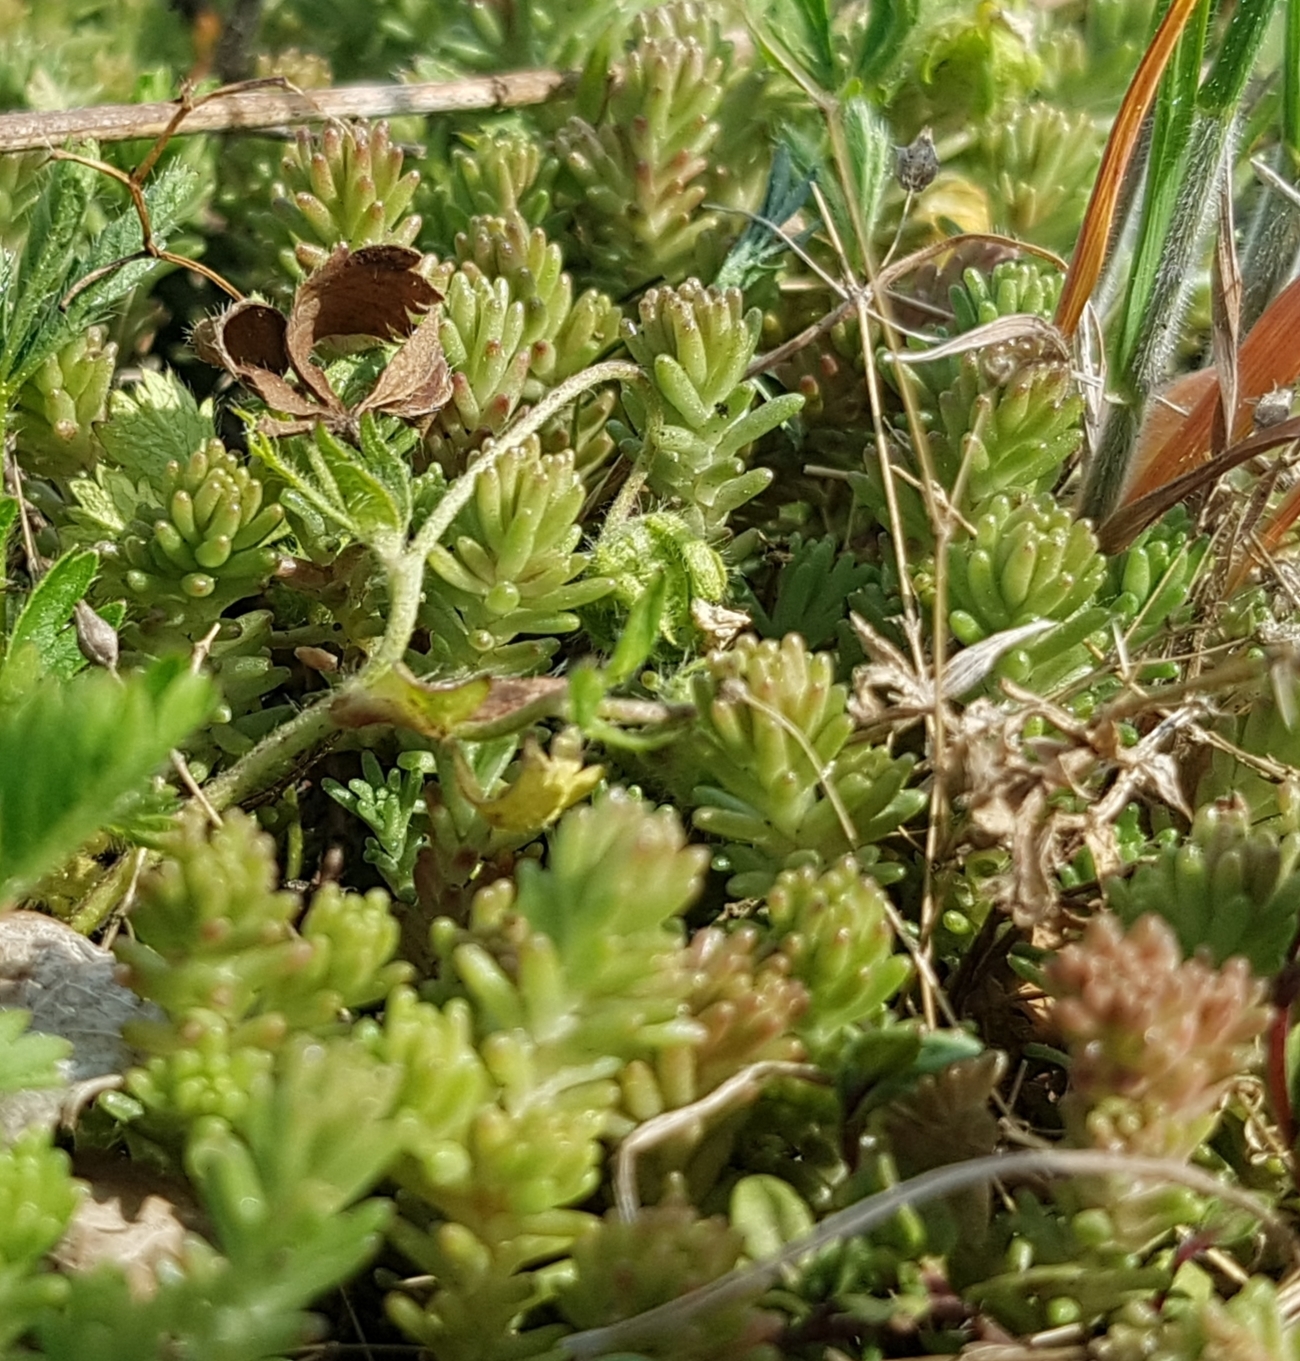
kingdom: Plantae
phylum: Tracheophyta
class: Magnoliopsida
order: Saxifragales
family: Crassulaceae
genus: Sedum
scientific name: Sedum sexangulare
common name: Tasteless stonecrop
